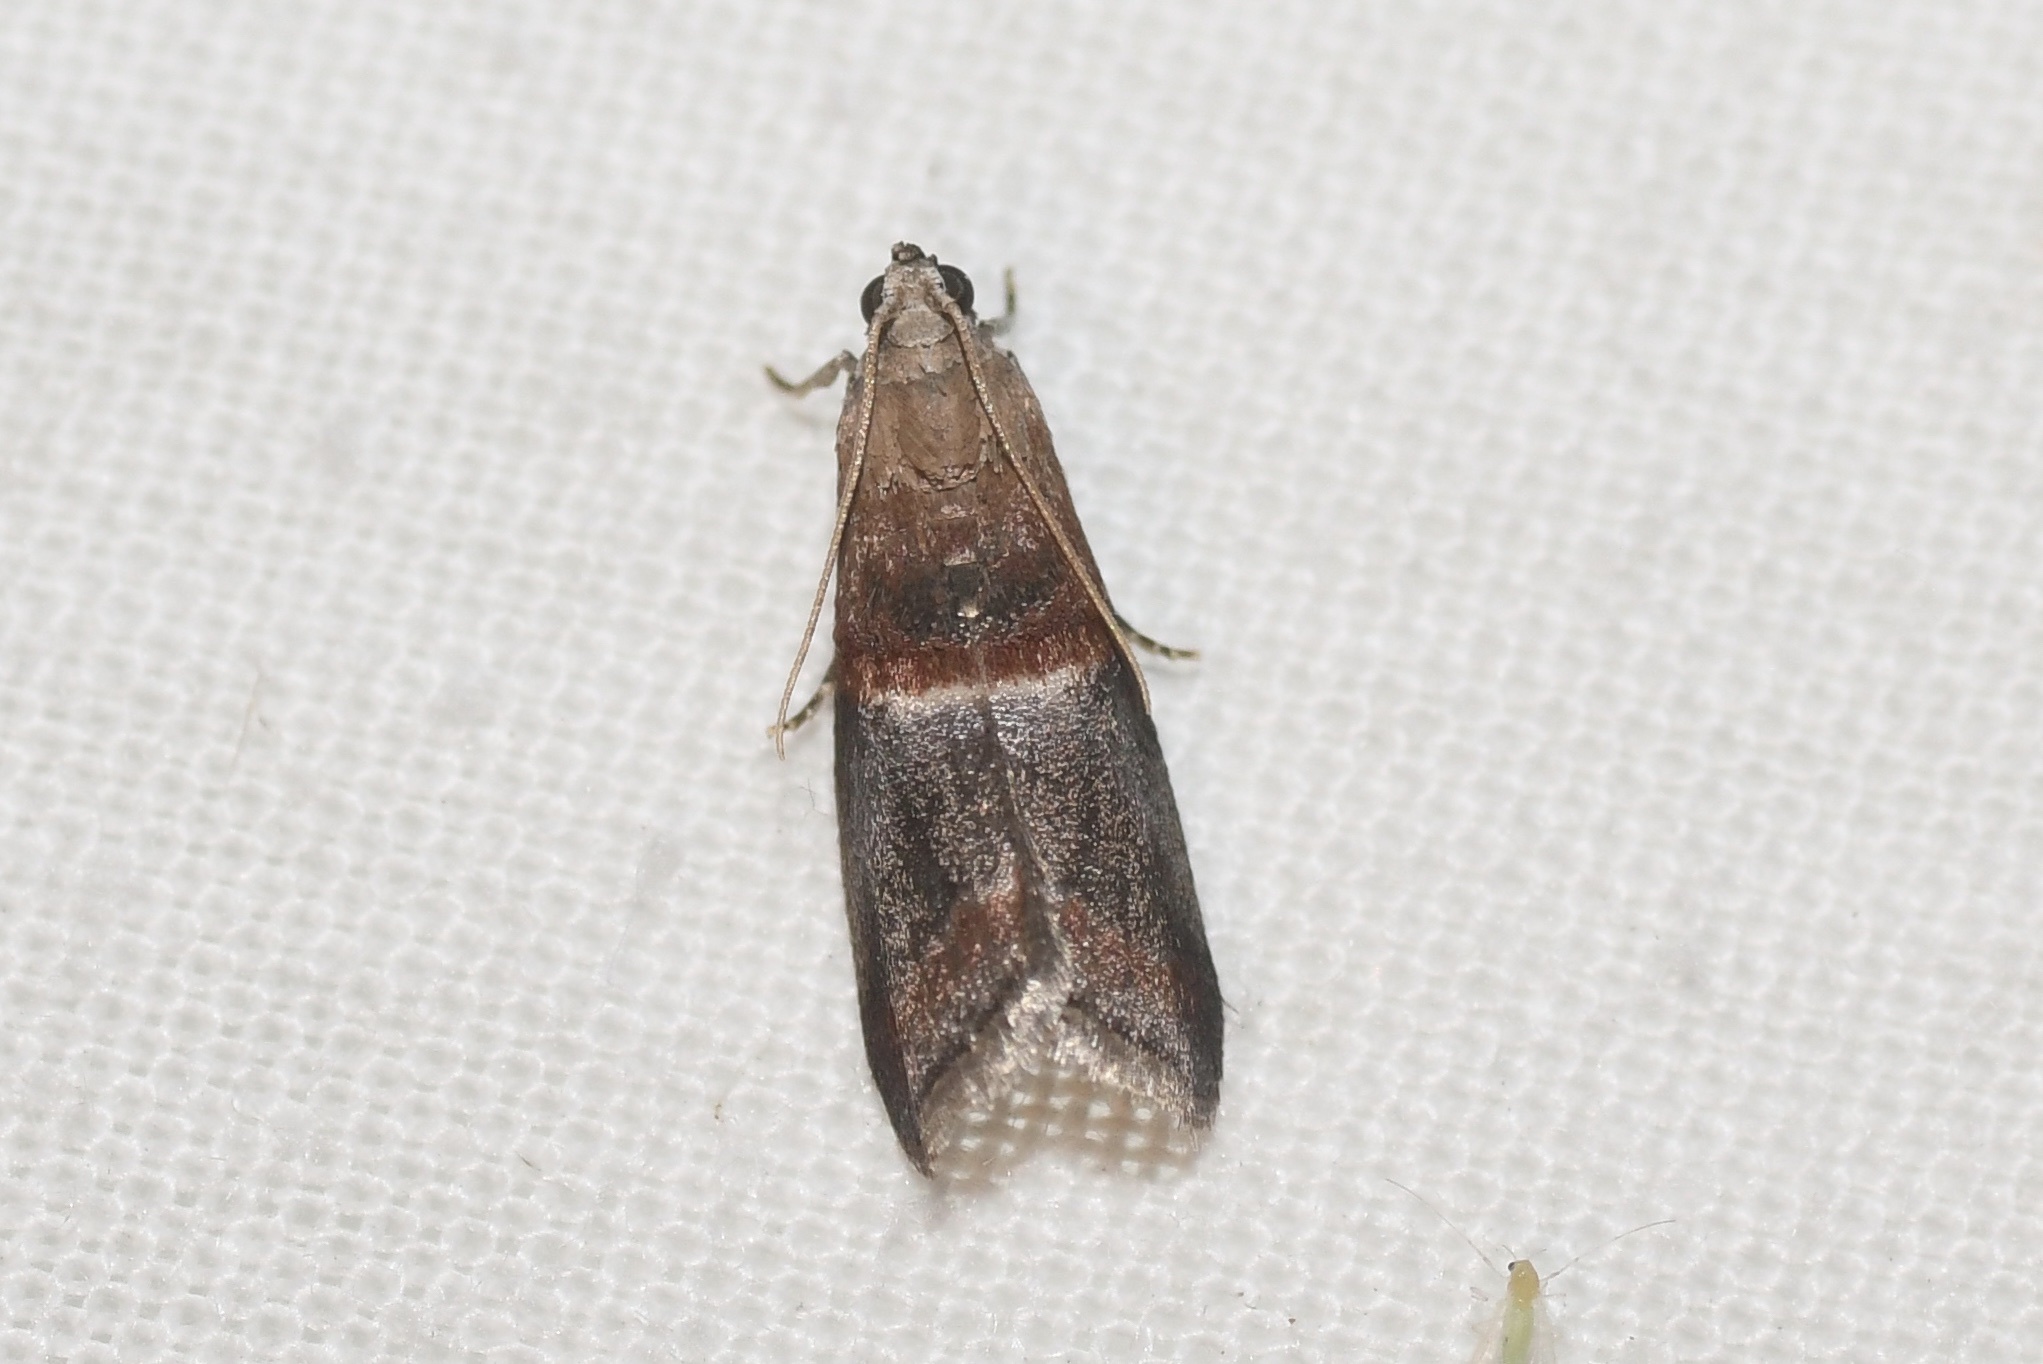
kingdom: Animalia
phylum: Arthropoda
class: Insecta
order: Lepidoptera
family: Pyralidae
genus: Acrobasis
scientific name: Acrobasis demotella
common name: Walnut shoot moth
